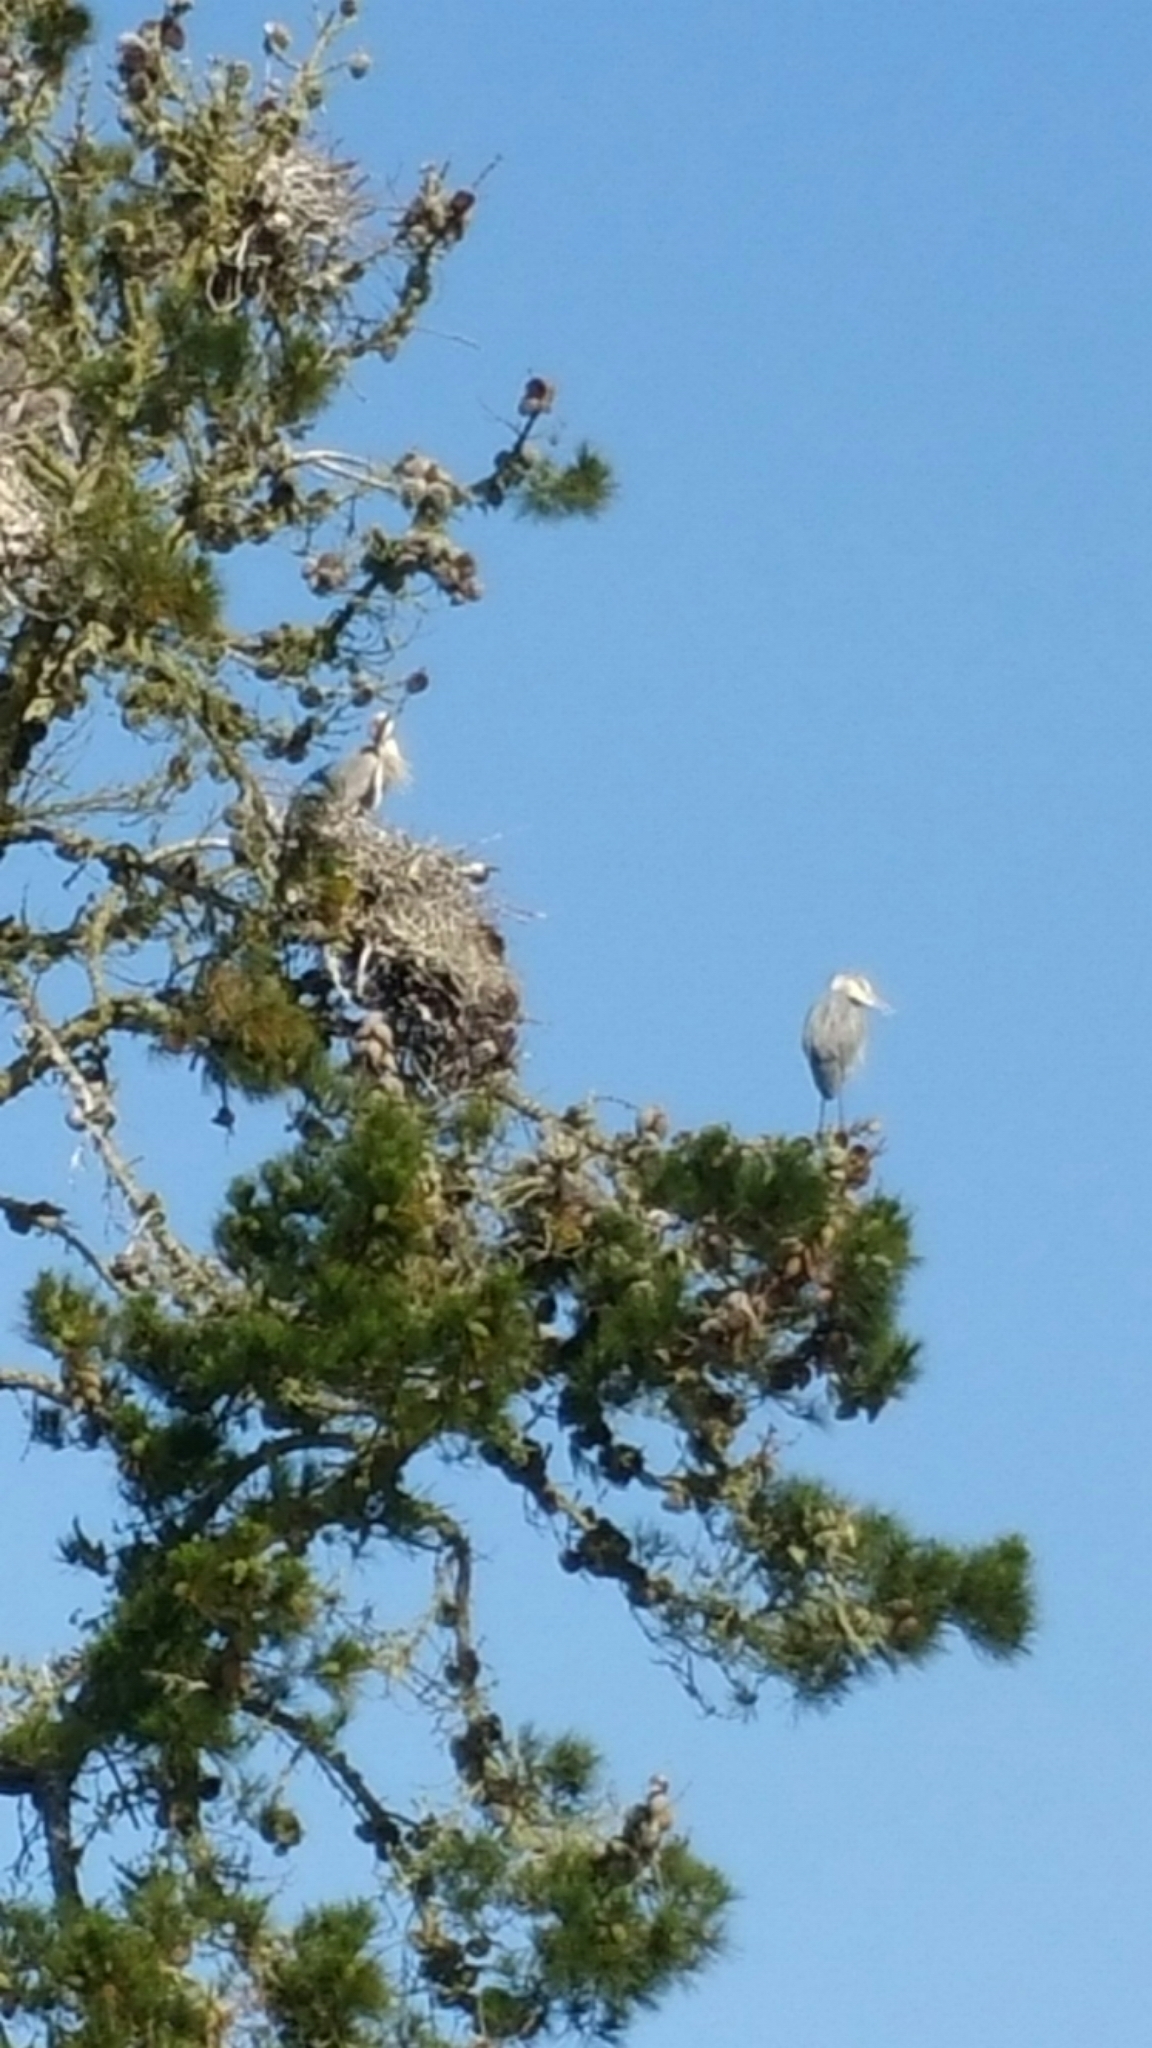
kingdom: Animalia
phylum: Chordata
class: Aves
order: Pelecaniformes
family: Ardeidae
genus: Ardea
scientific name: Ardea herodias
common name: Great blue heron
